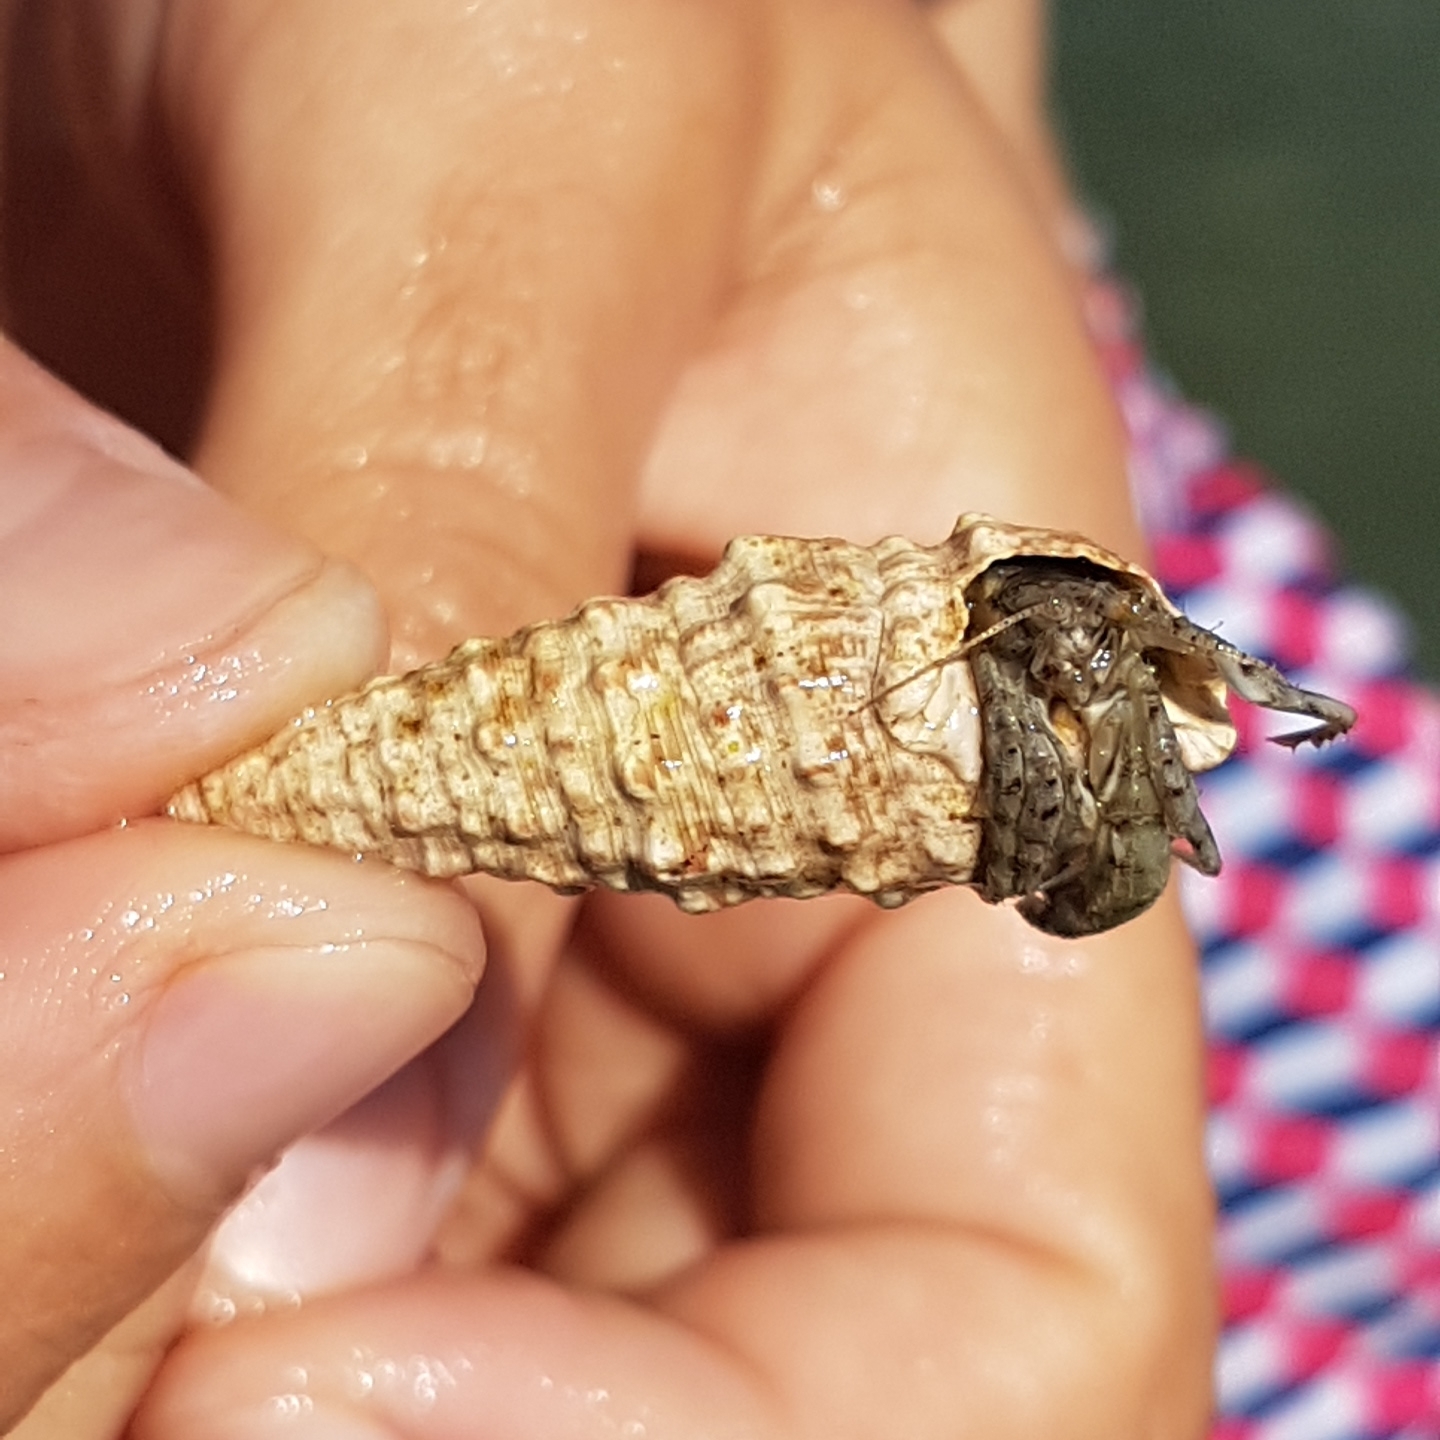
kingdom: Animalia
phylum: Arthropoda
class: Malacostraca
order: Decapoda
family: Diogenidae
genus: Diogenes
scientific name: Diogenes pugilator
